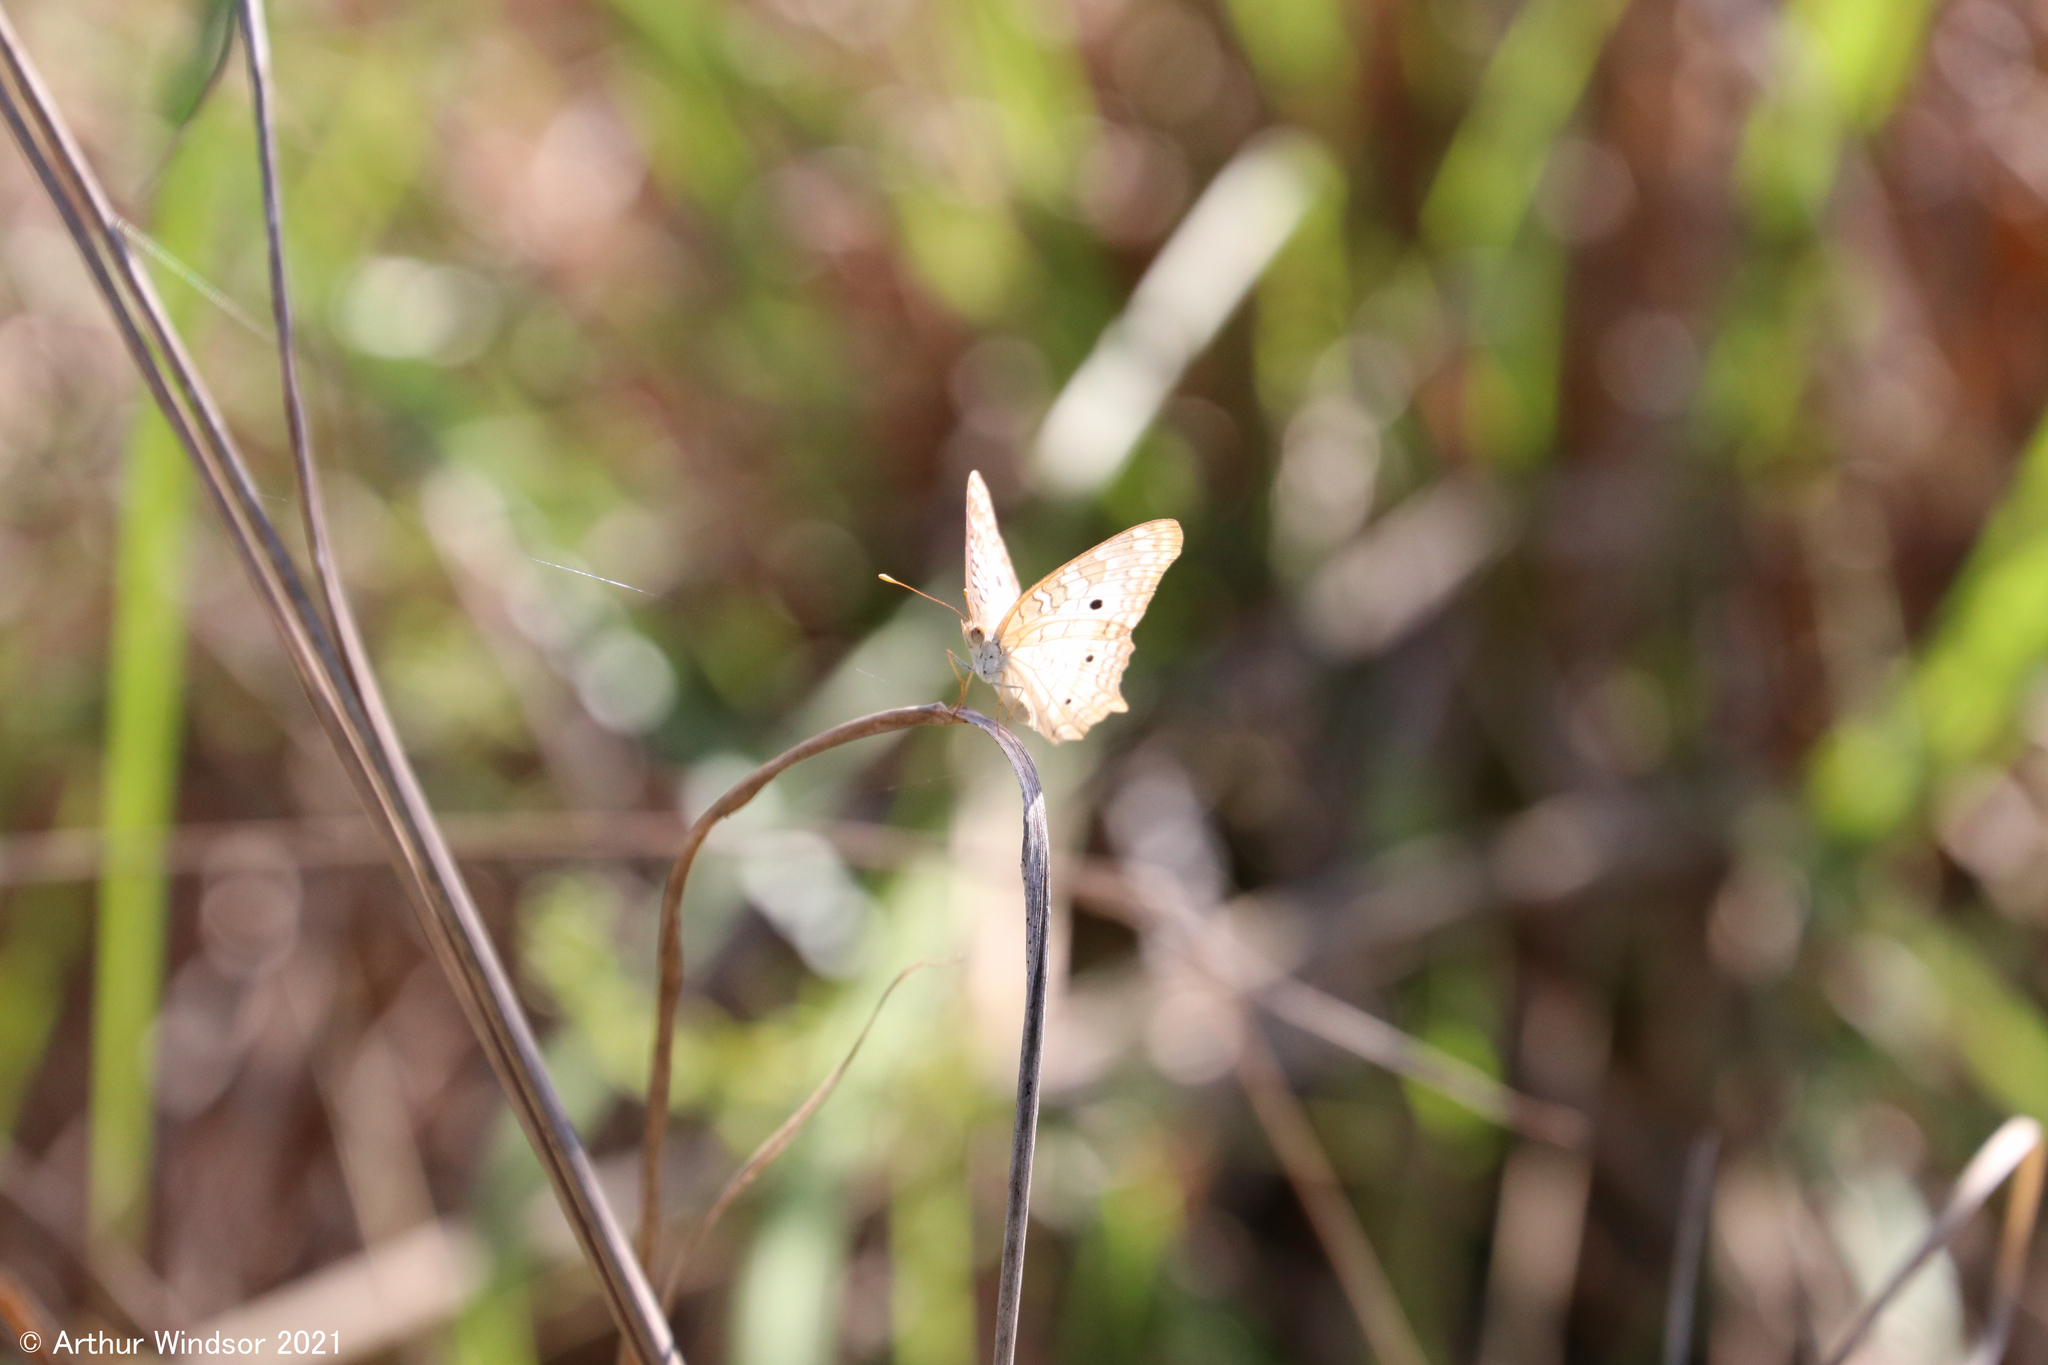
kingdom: Animalia
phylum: Arthropoda
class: Insecta
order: Lepidoptera
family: Nymphalidae
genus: Anartia
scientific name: Anartia jatrophae
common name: White peacock
